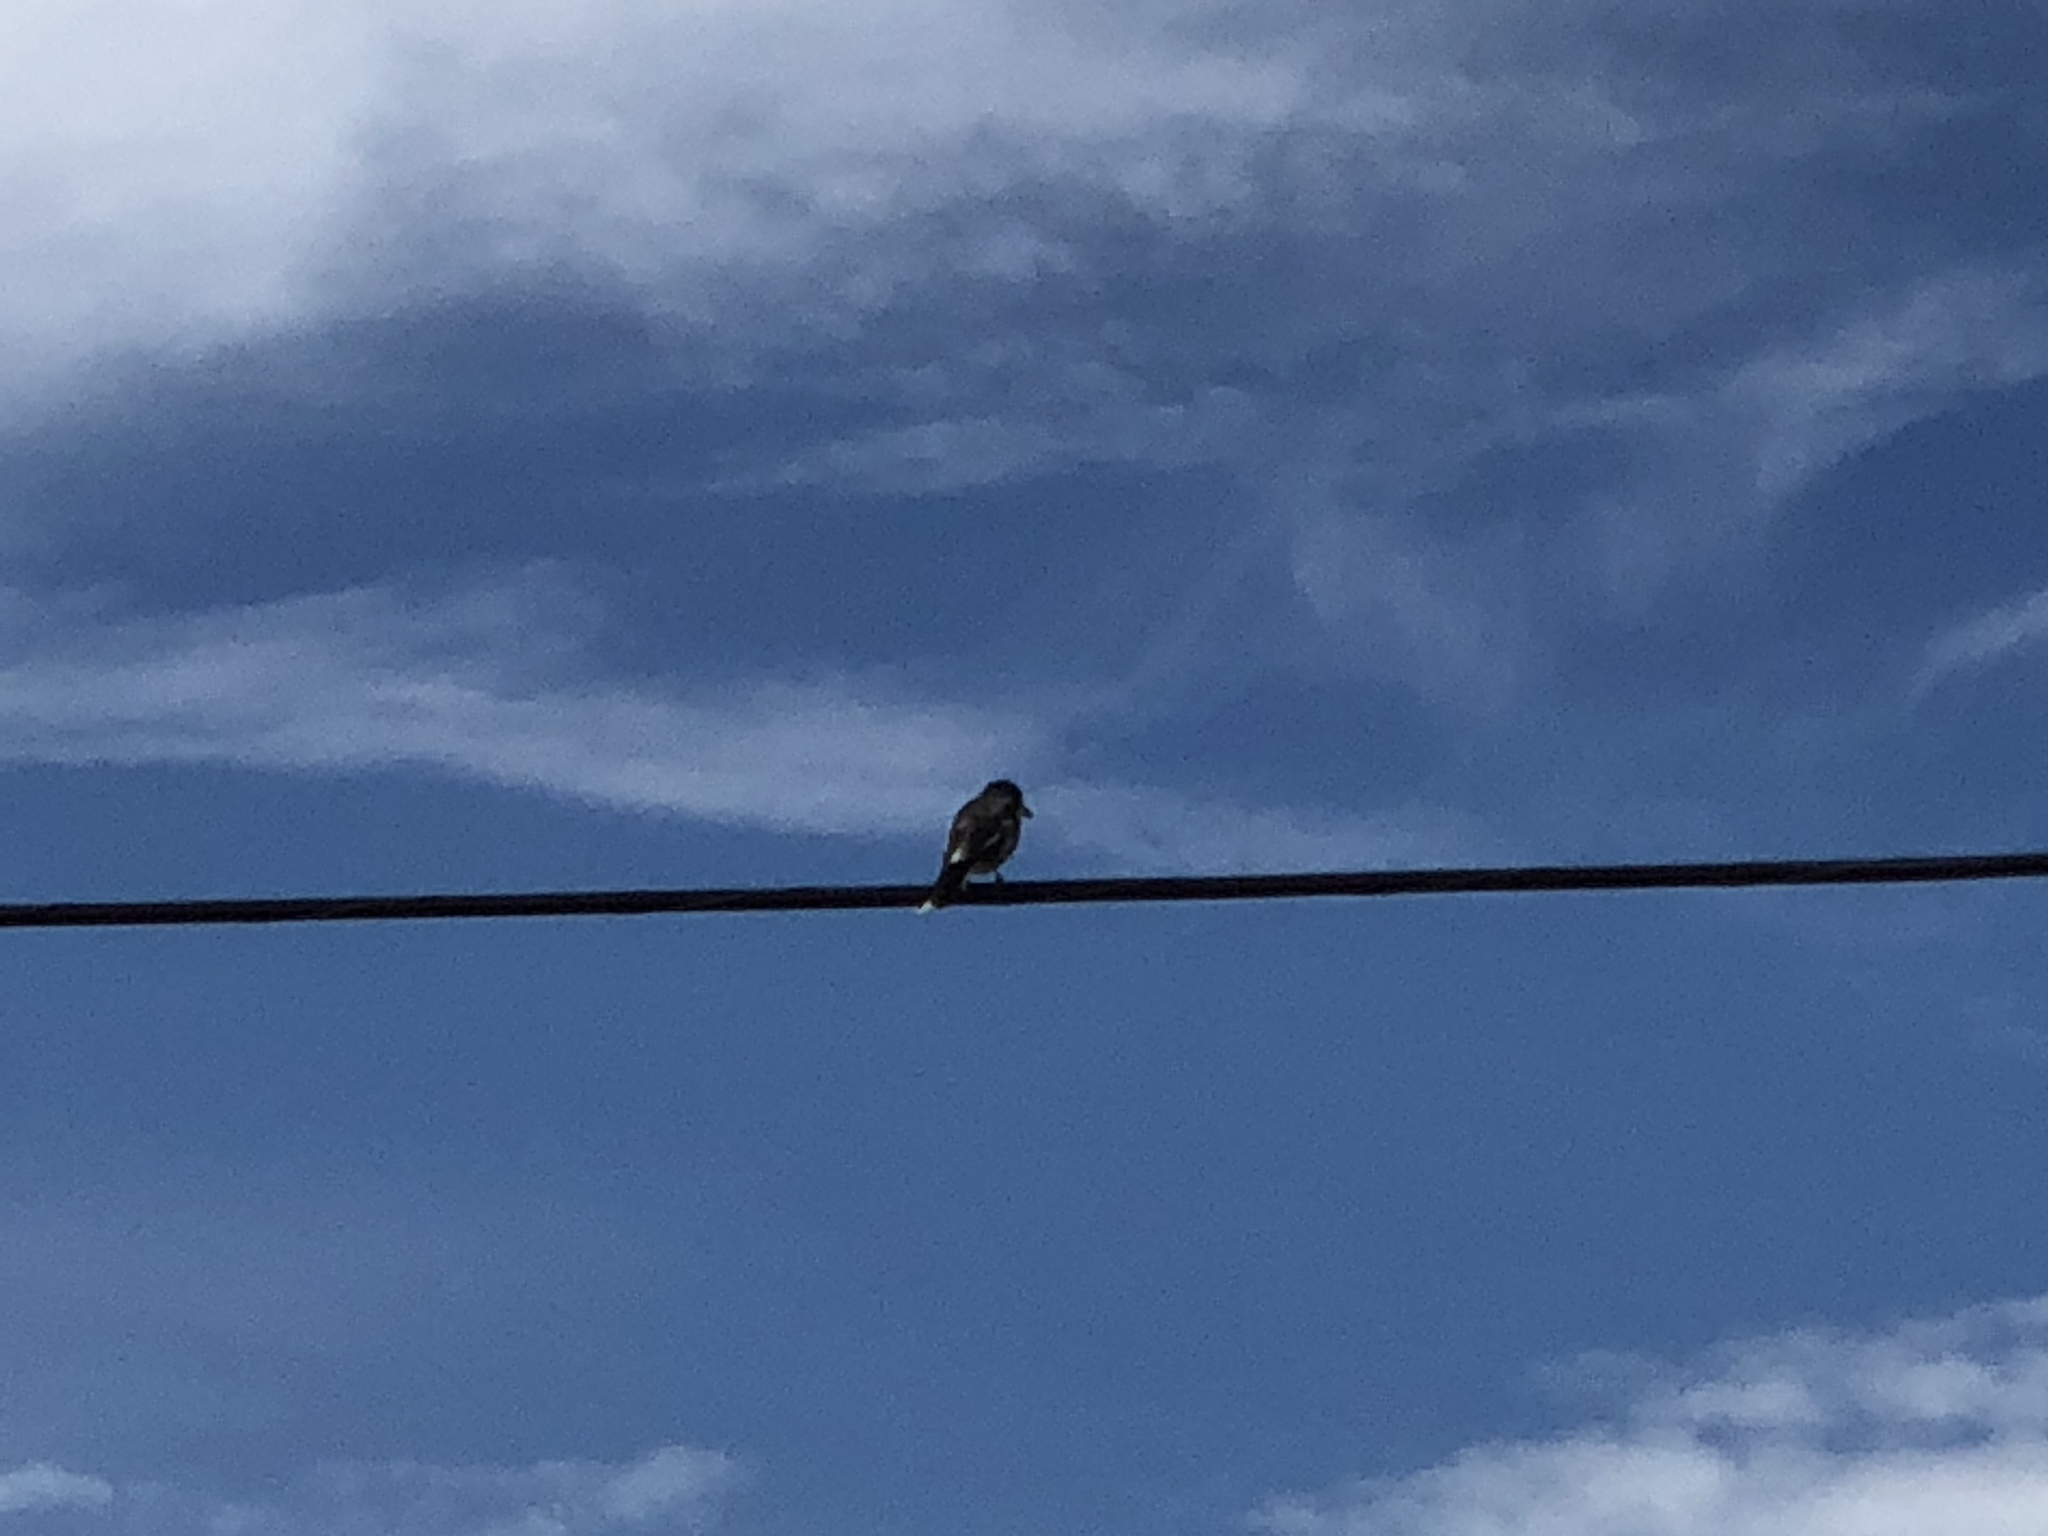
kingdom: Animalia
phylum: Chordata
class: Aves
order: Passeriformes
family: Cracticidae
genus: Cracticus
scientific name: Cracticus torquatus
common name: Grey butcherbird
